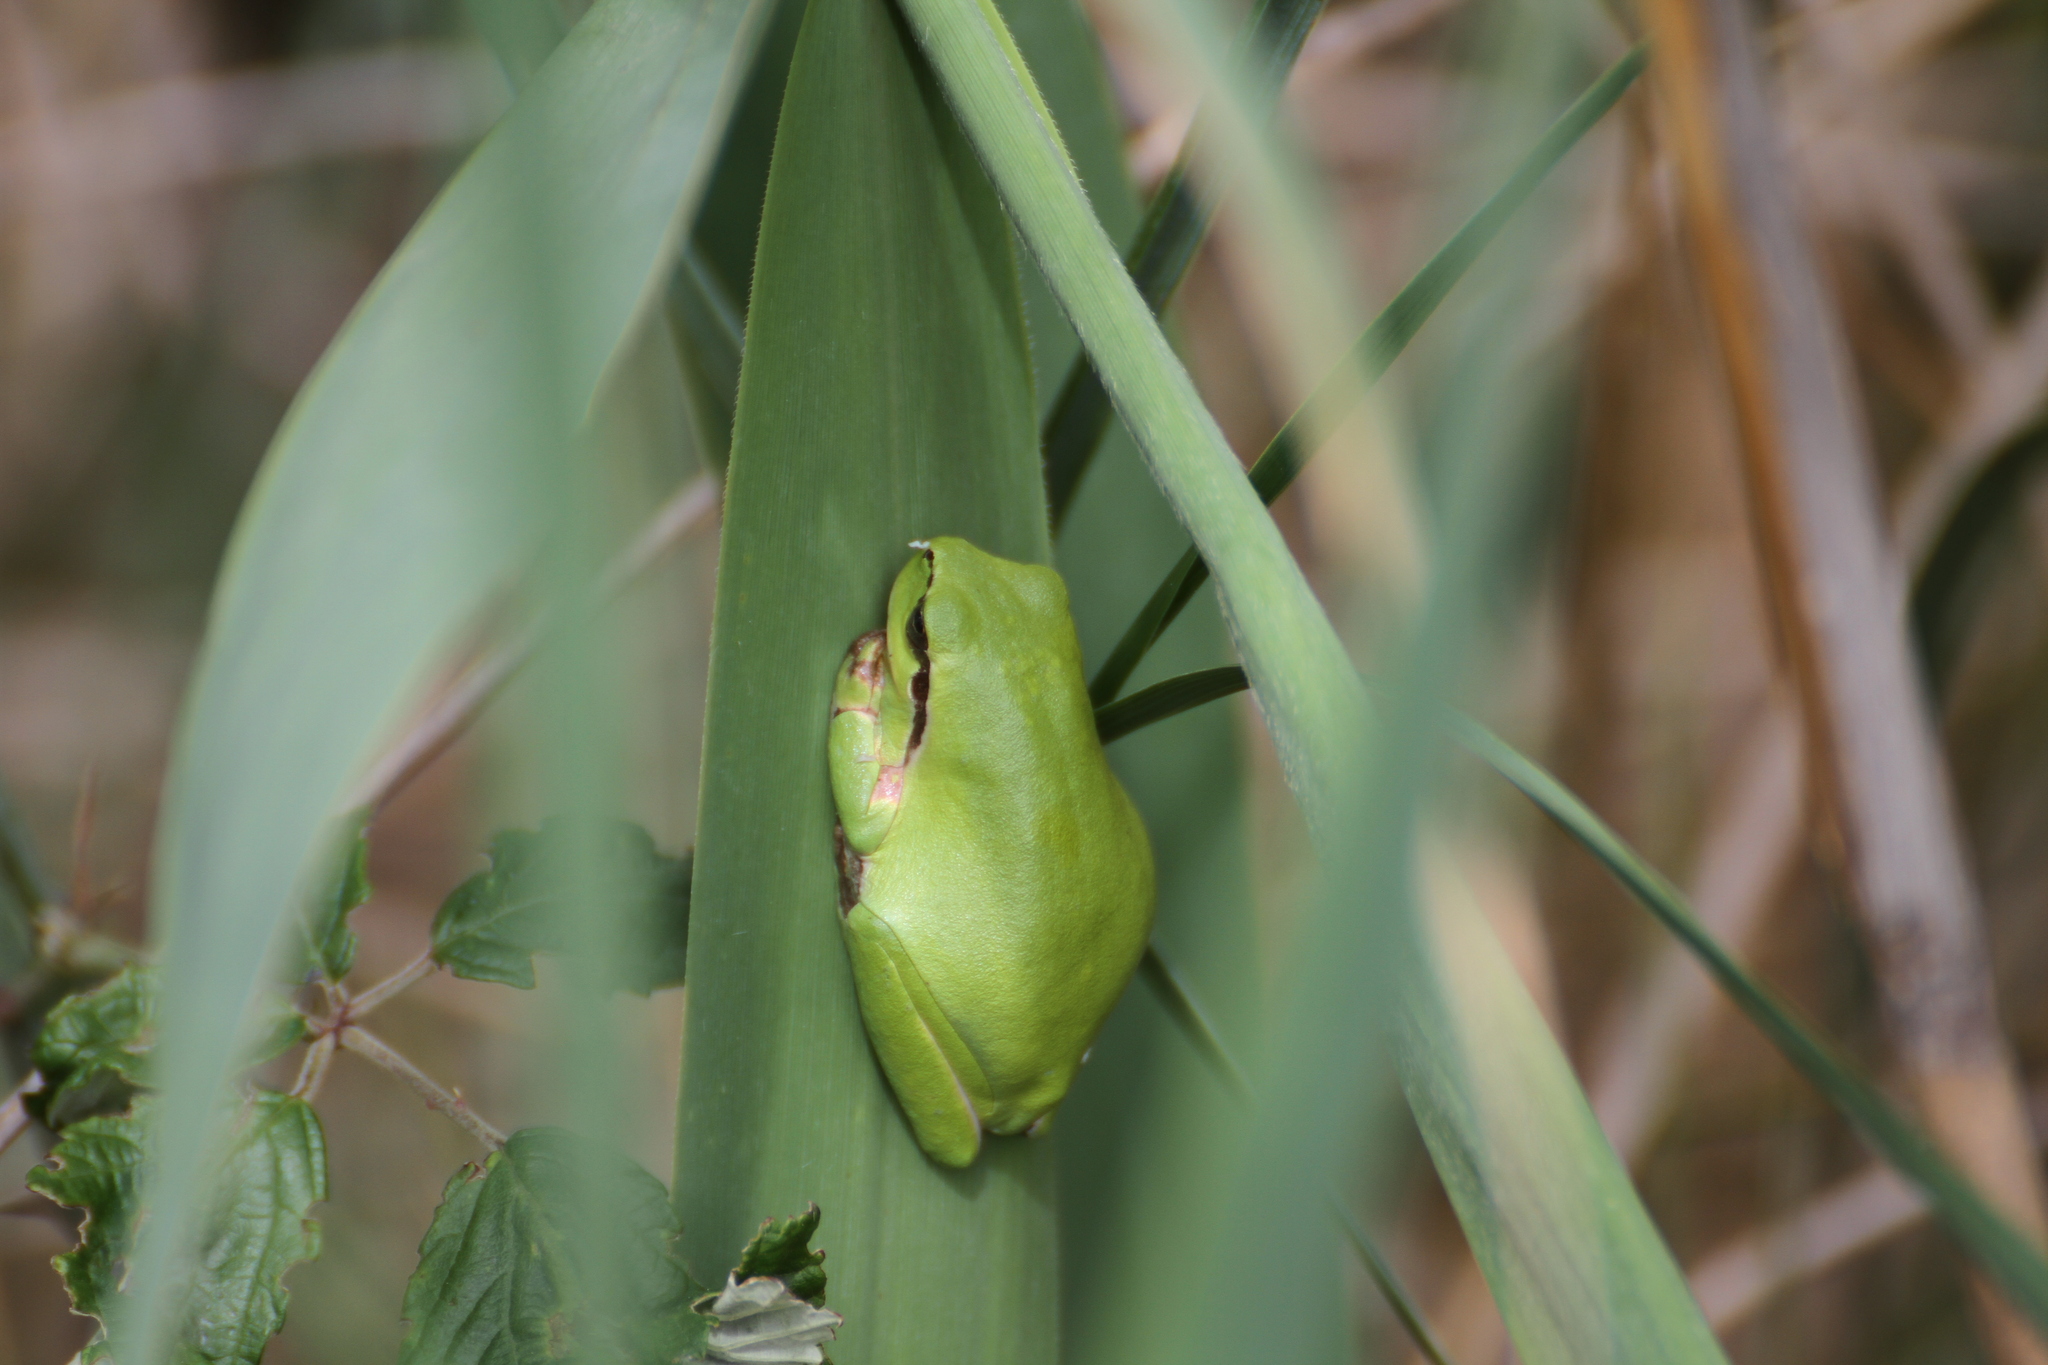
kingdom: Animalia
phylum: Chordata
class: Amphibia
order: Anura
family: Hylidae
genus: Hyla
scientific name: Hyla meridionalis
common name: Stripeless tree frog
